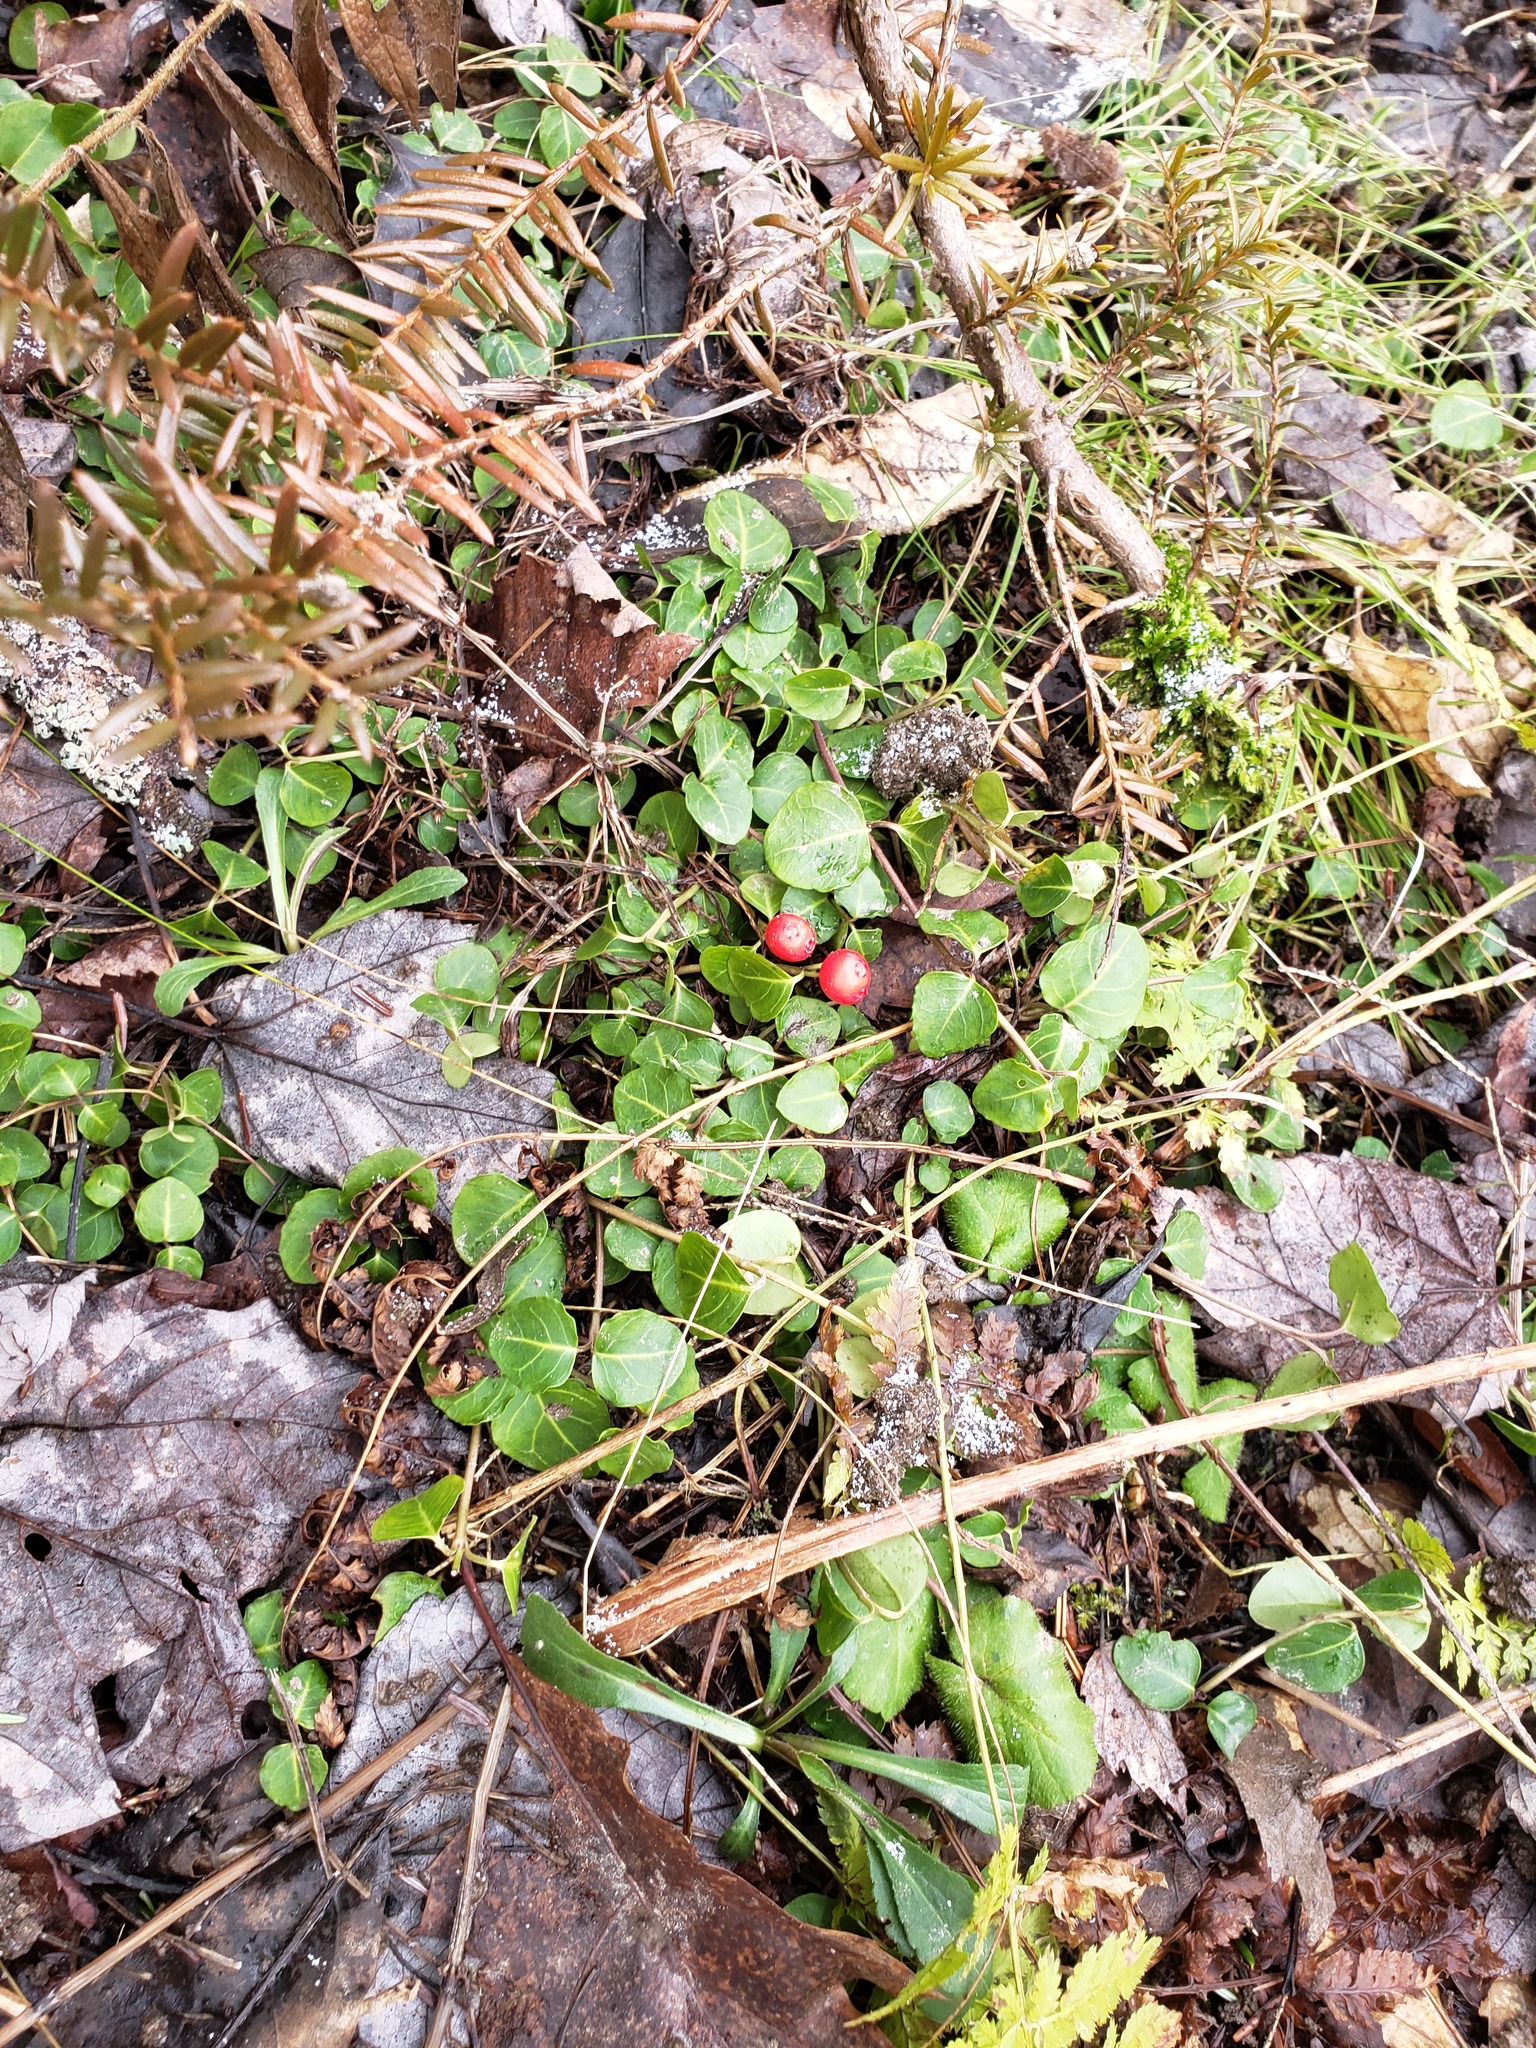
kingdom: Plantae
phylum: Tracheophyta
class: Magnoliopsida
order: Gentianales
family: Rubiaceae
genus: Mitchella
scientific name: Mitchella repens
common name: Partridge-berry
